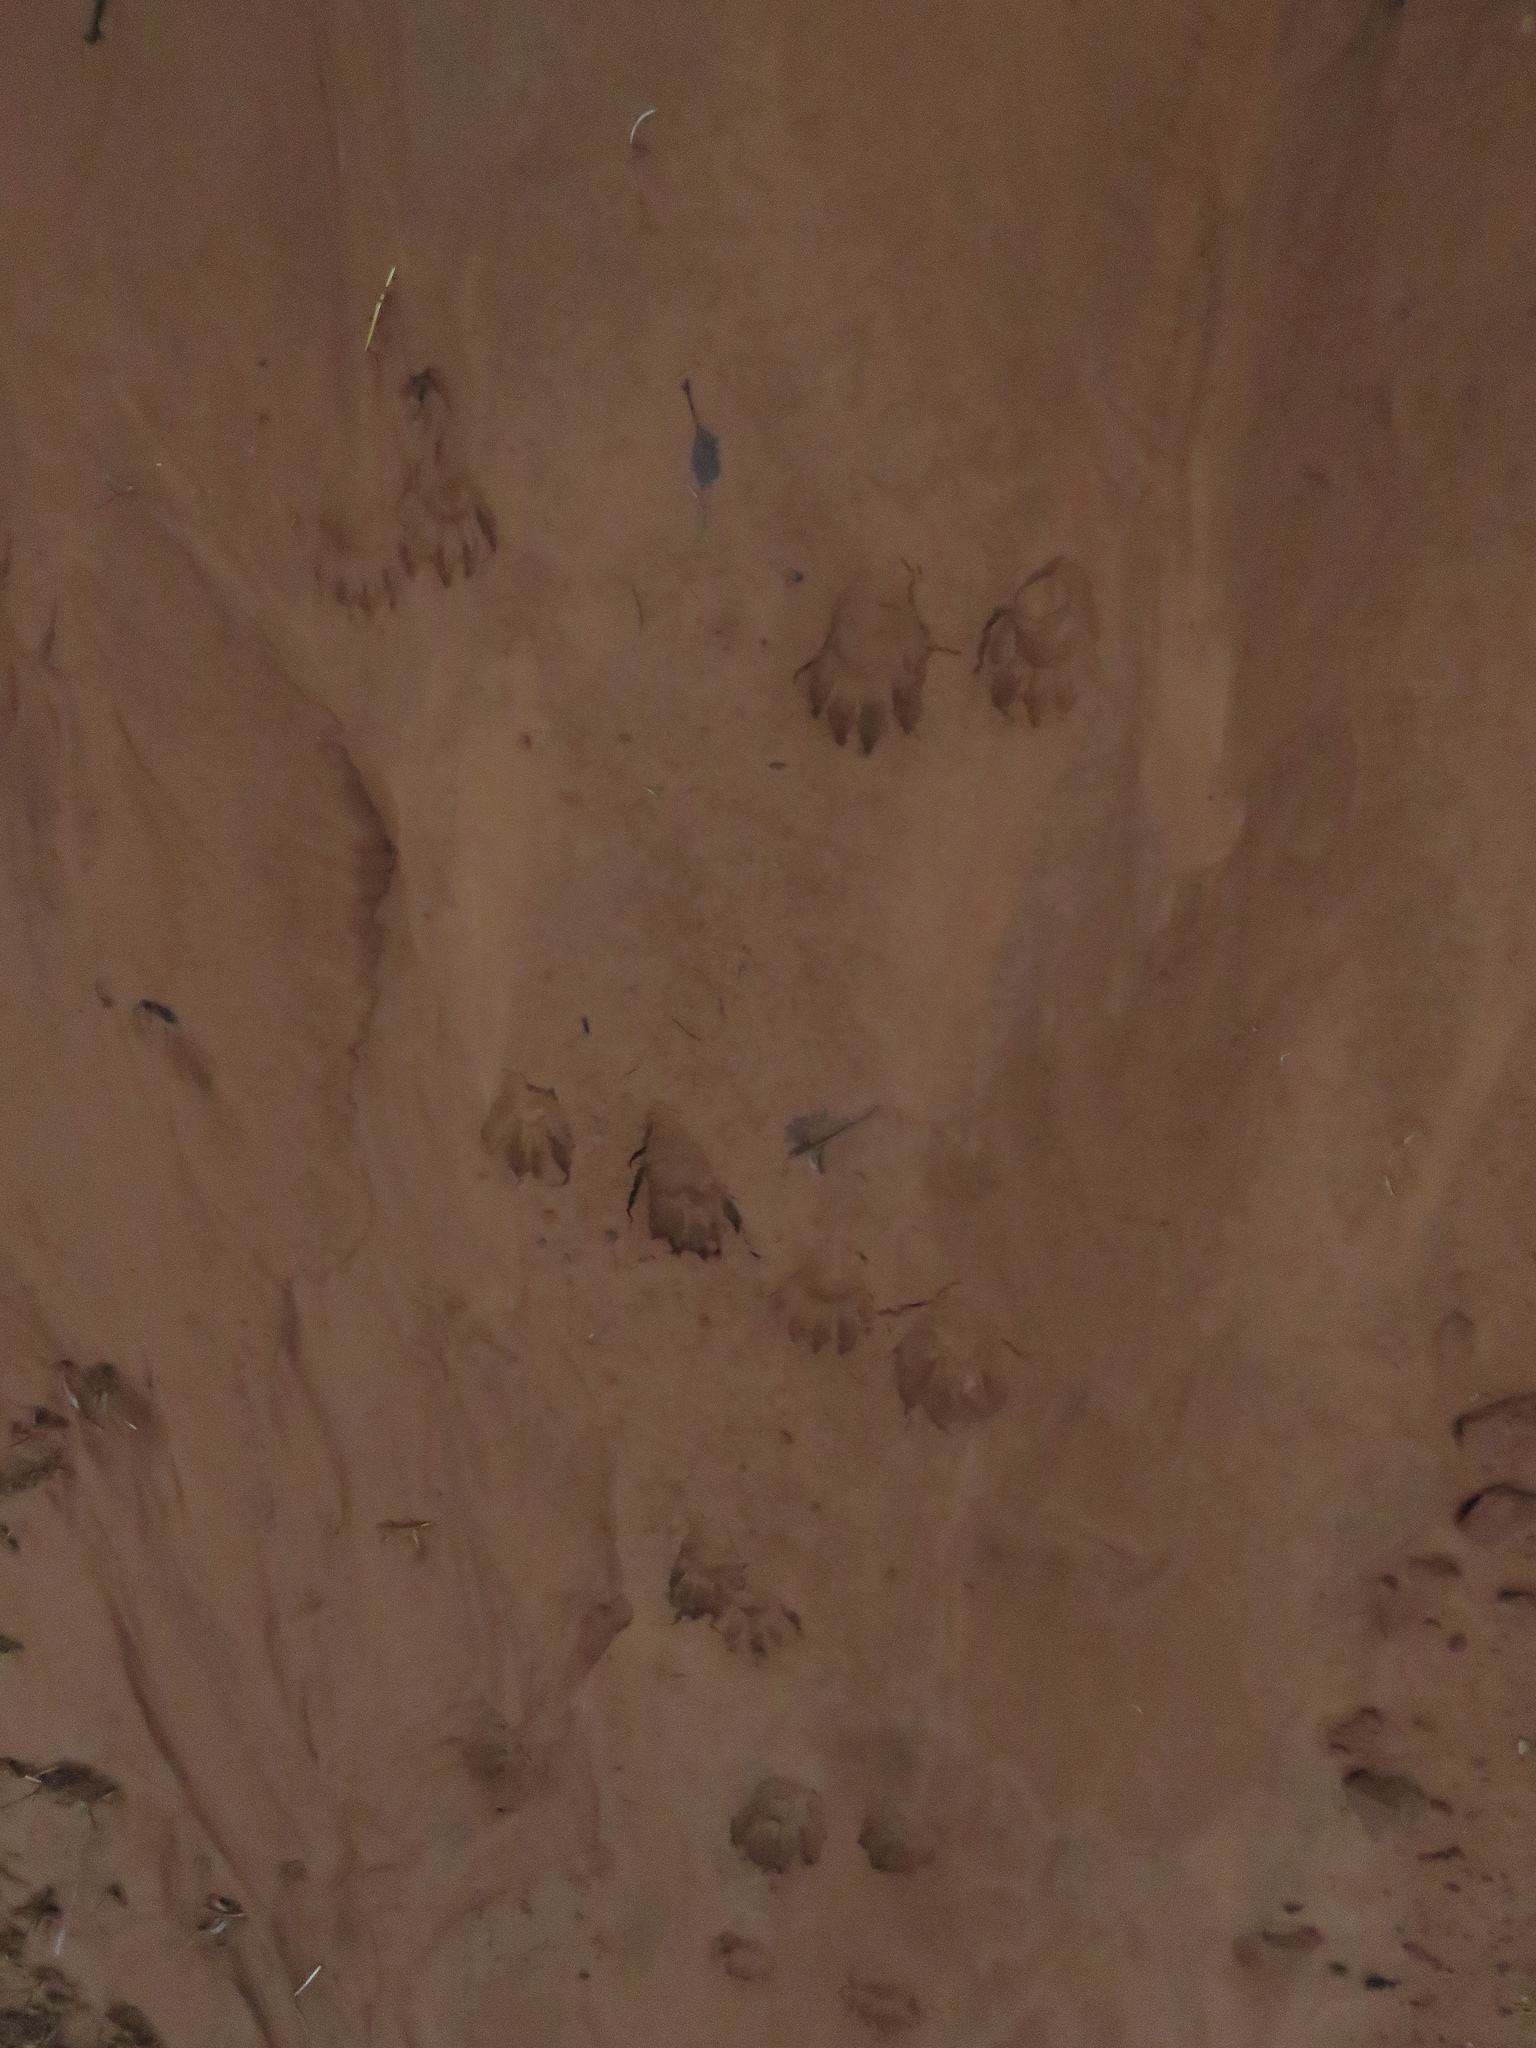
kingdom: Animalia
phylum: Chordata
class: Mammalia
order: Carnivora
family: Procyonidae
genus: Procyon
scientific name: Procyon lotor
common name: Raccoon
